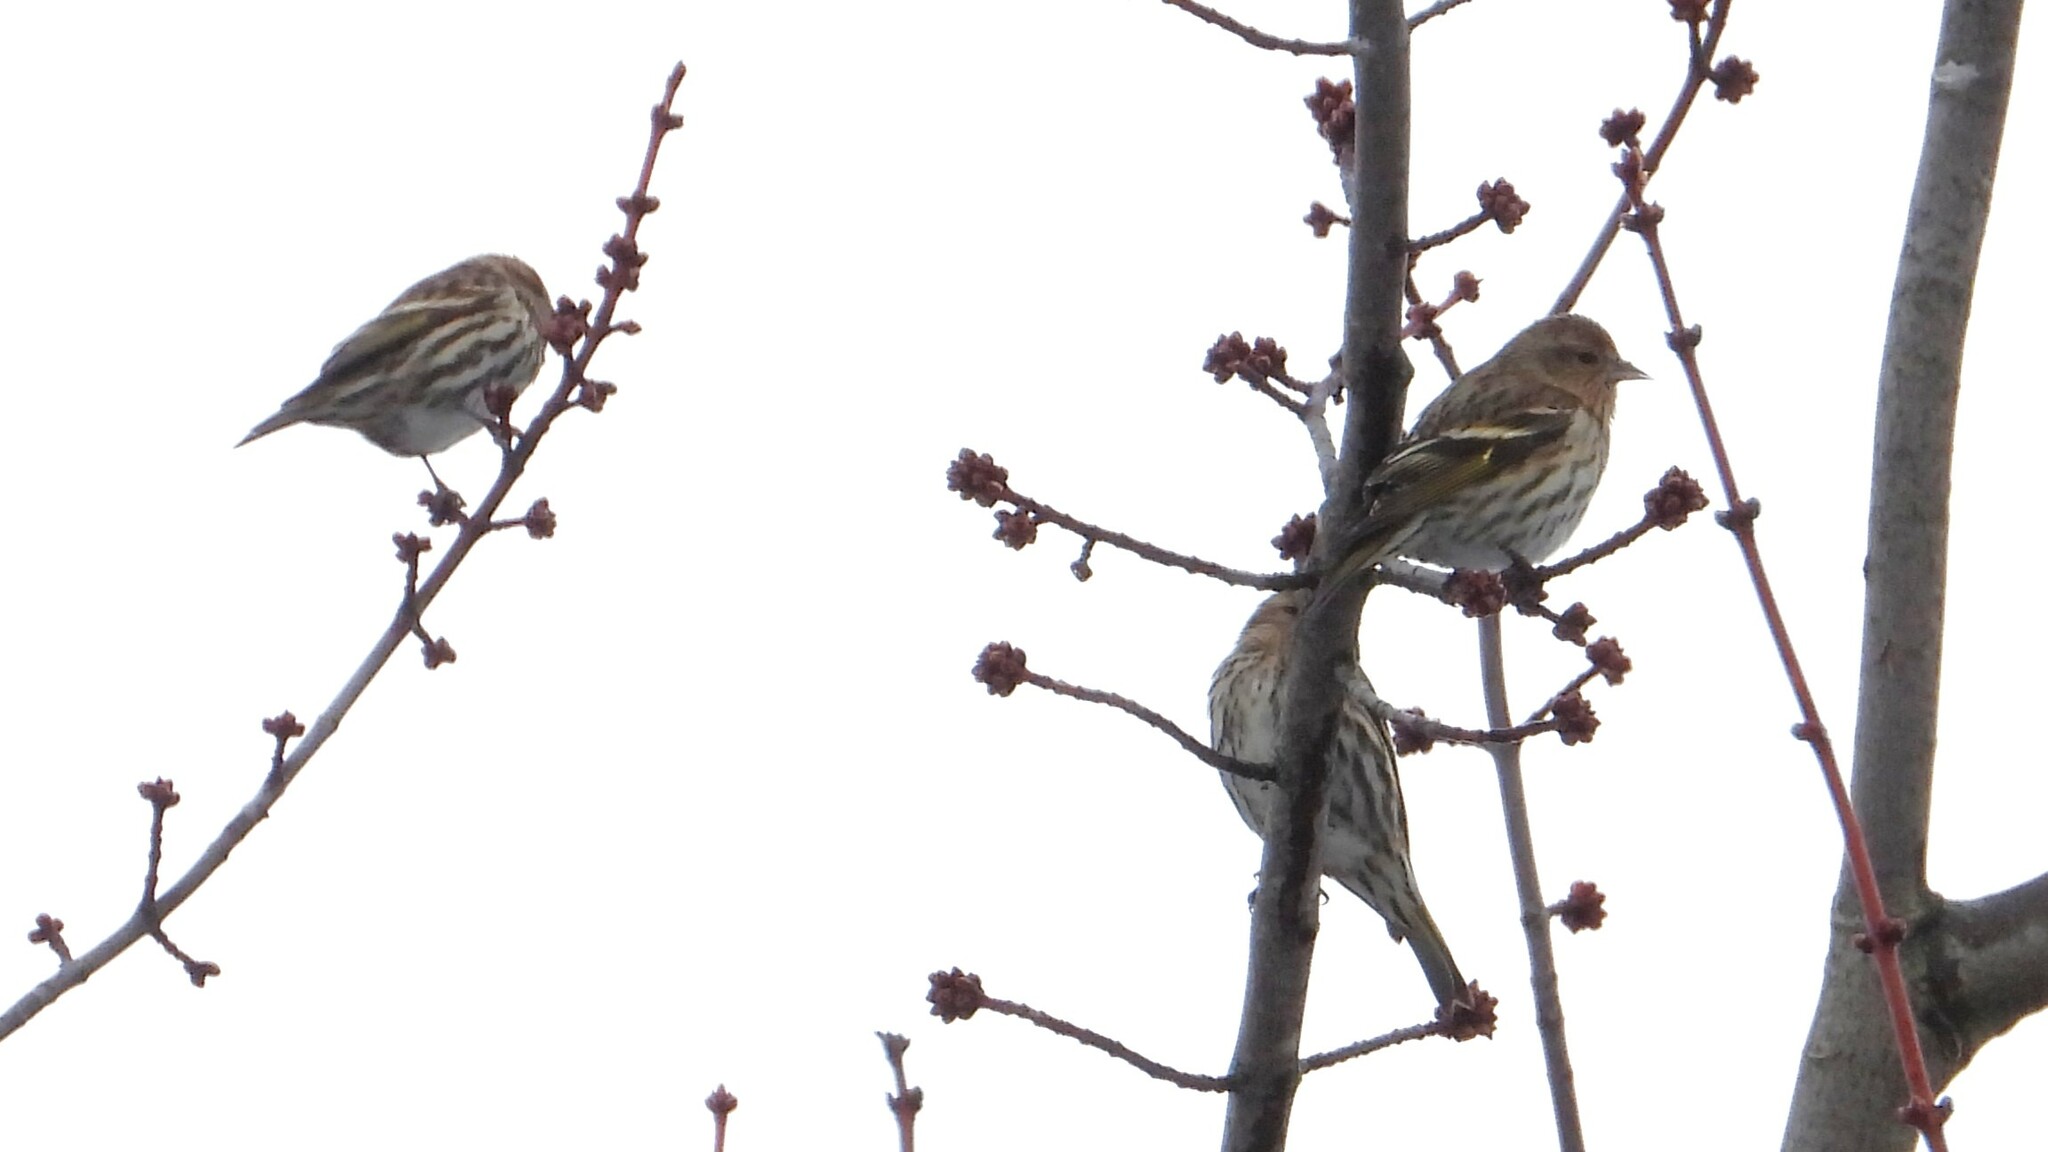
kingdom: Animalia
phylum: Chordata
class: Aves
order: Passeriformes
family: Fringillidae
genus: Spinus
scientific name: Spinus pinus
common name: Pine siskin
